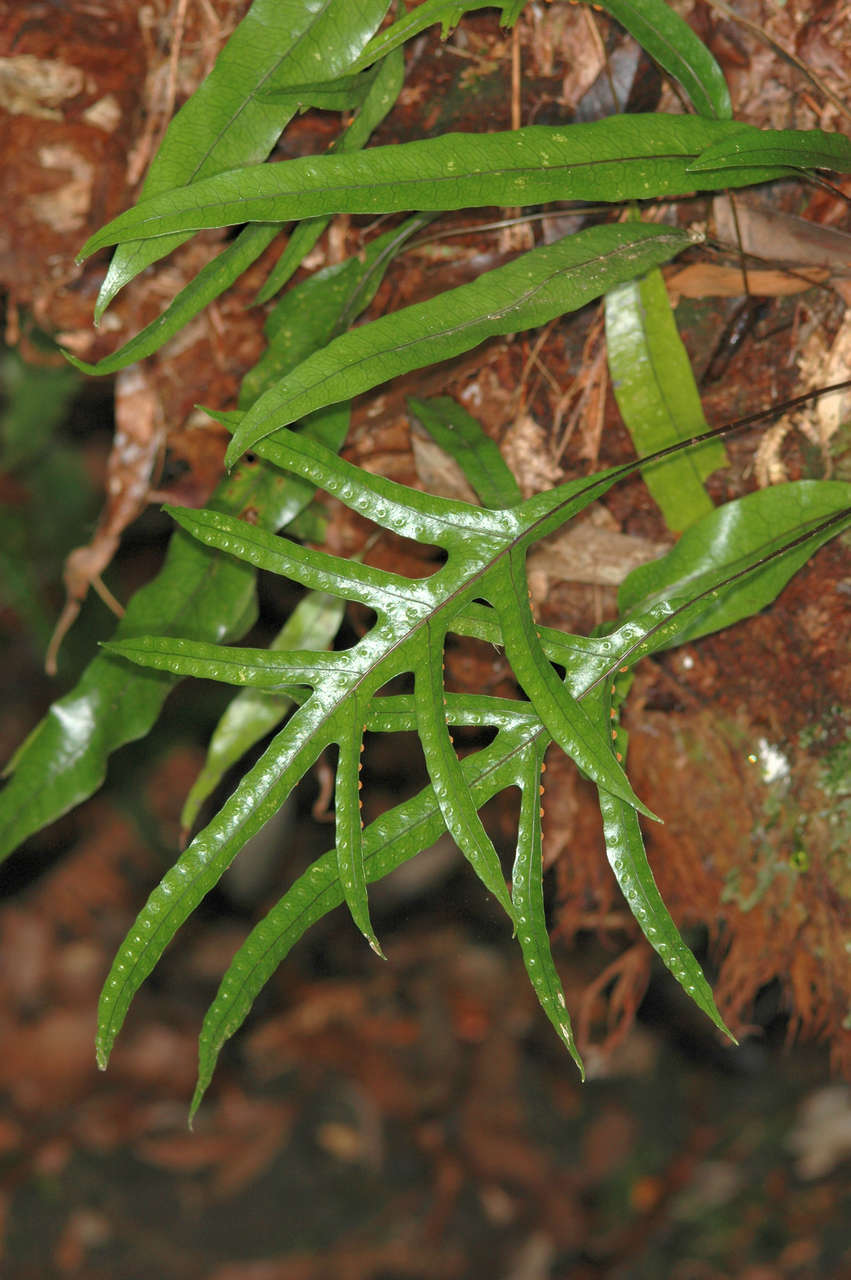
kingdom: Plantae
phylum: Tracheophyta
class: Polypodiopsida
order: Polypodiales
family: Polypodiaceae
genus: Lecanopteris
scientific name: Lecanopteris pustulata
